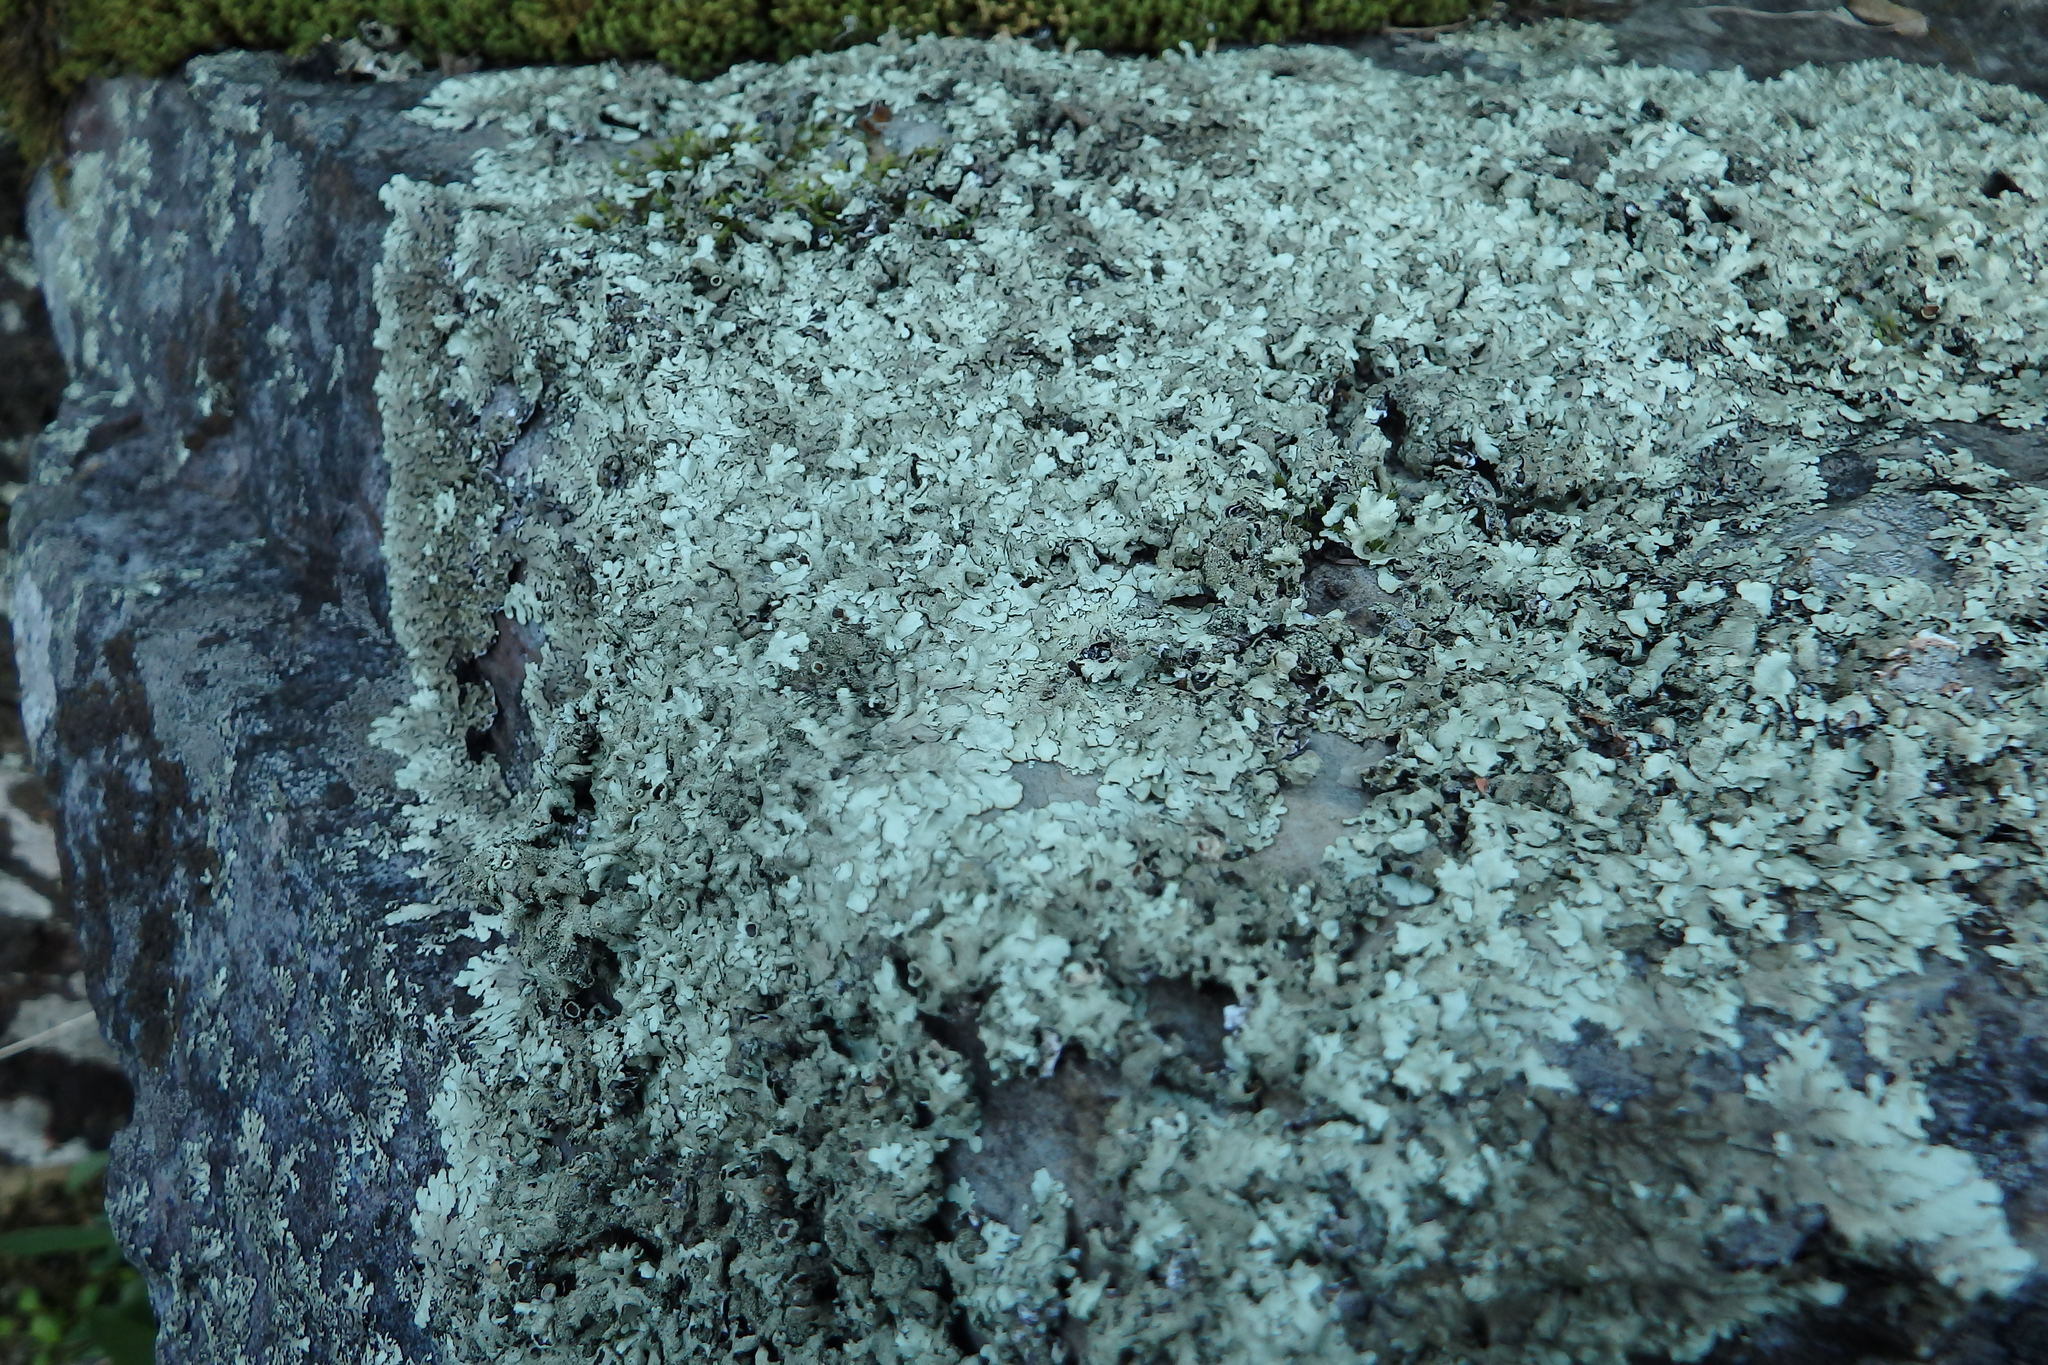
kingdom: Fungi
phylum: Ascomycota
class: Lecanoromycetes
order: Lecanorales
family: Parmeliaceae
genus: Xanthoparmelia
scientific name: Xanthoparmelia
